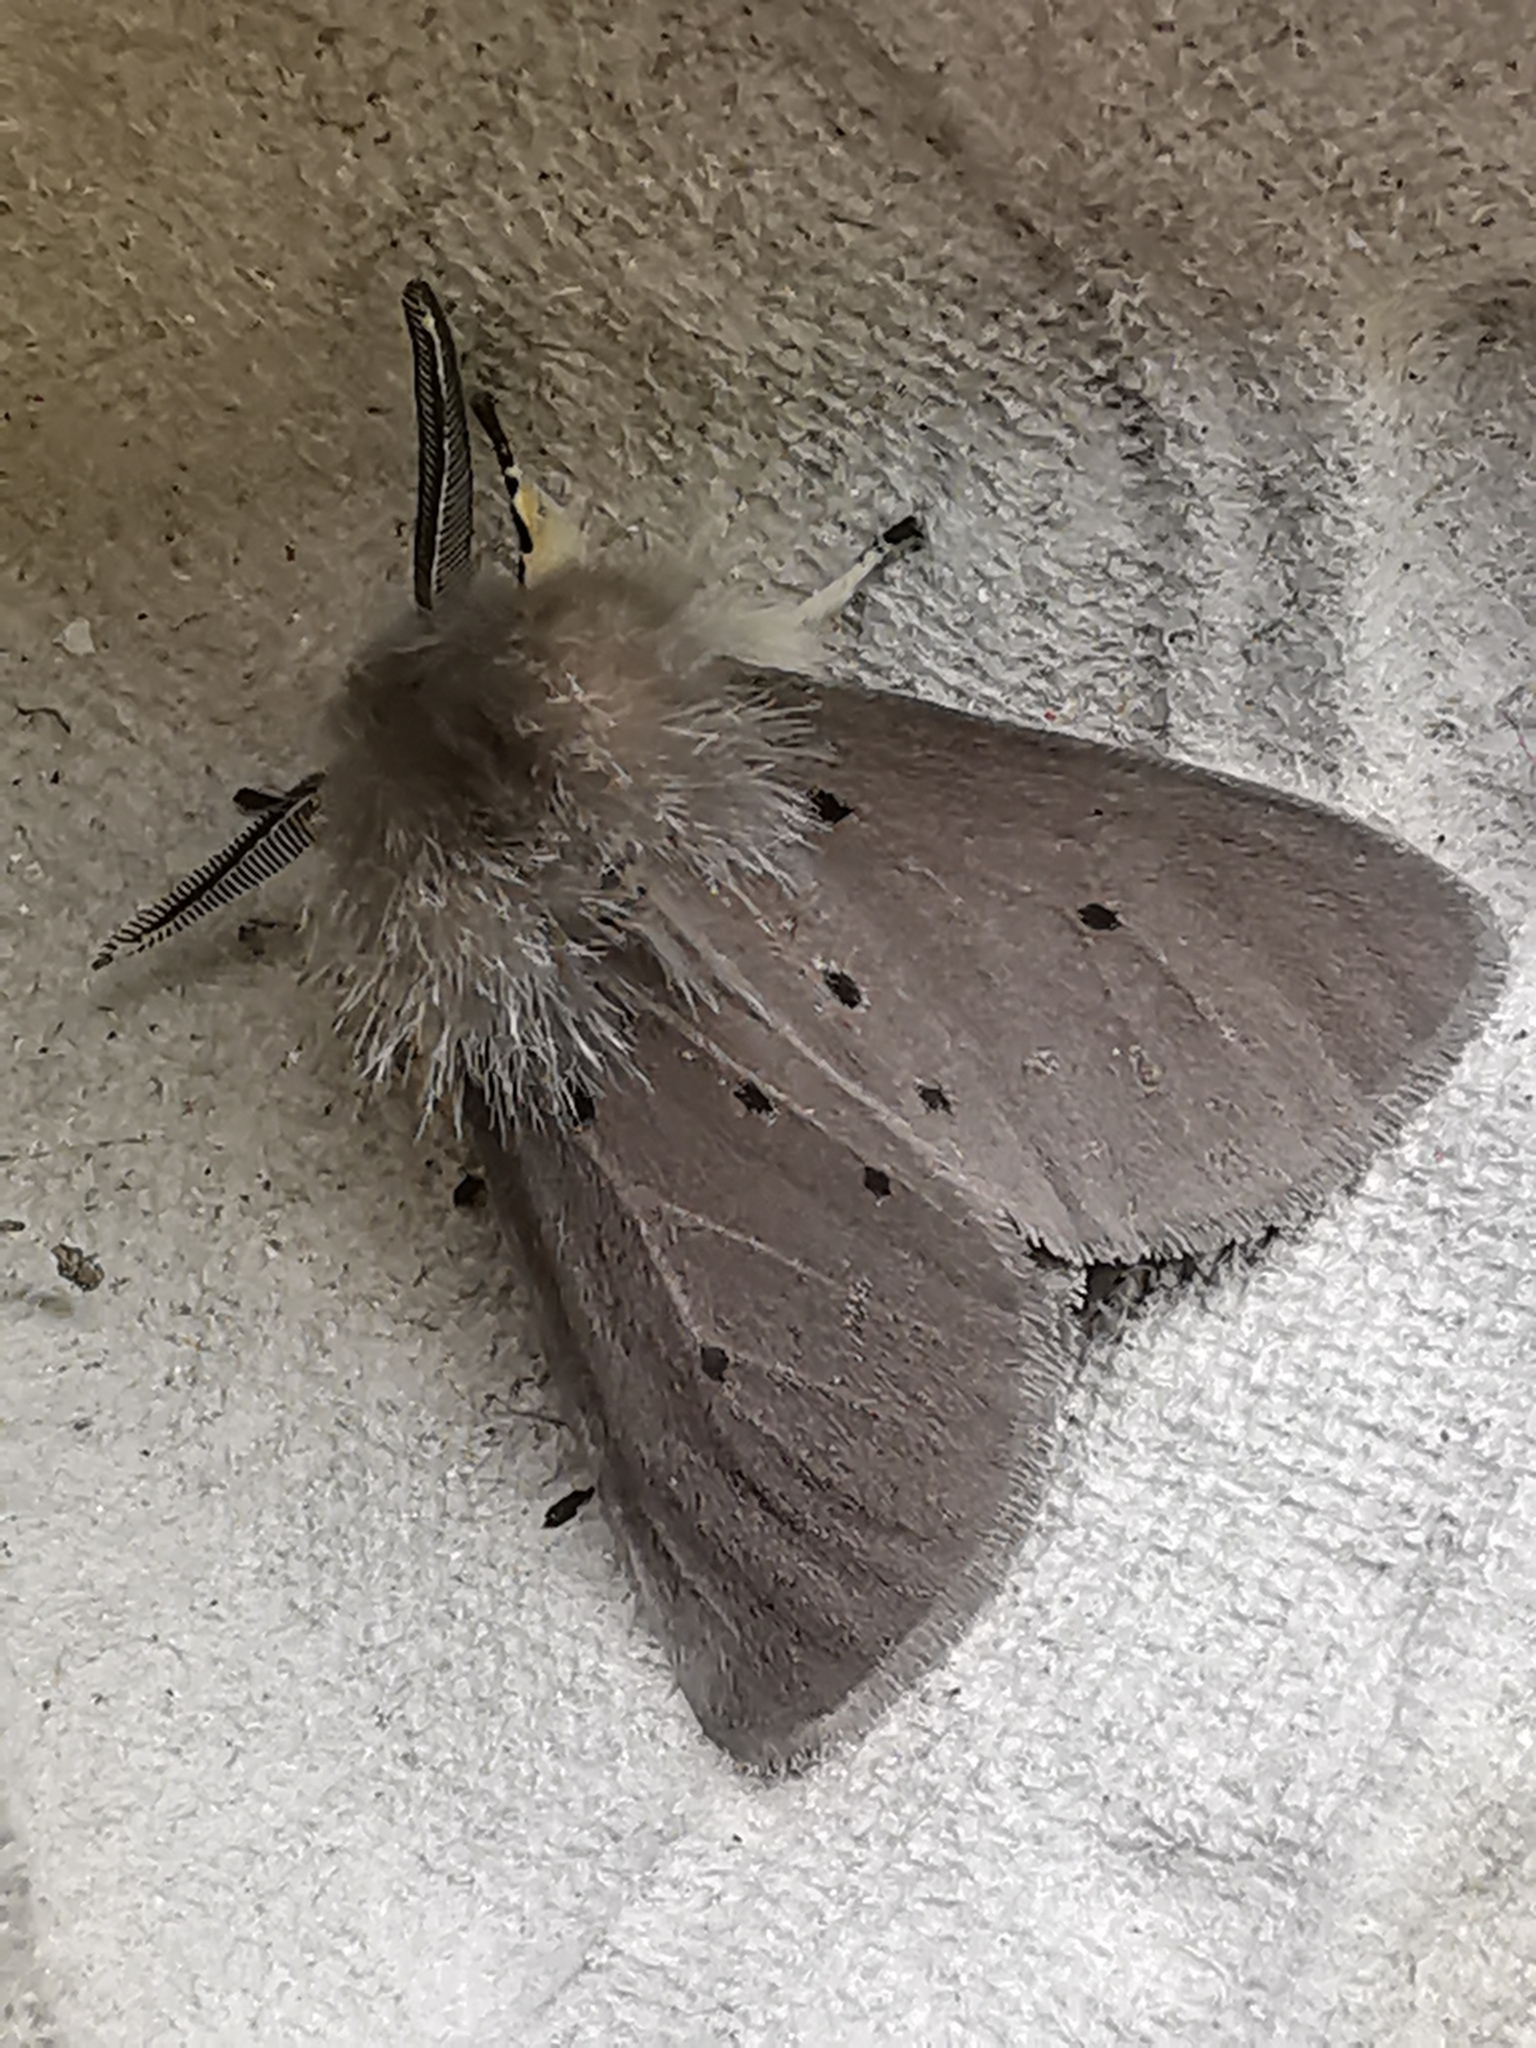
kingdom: Animalia
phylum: Arthropoda
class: Insecta
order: Lepidoptera
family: Erebidae
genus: Diaphora
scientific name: Diaphora mendica
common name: Muslin moth
